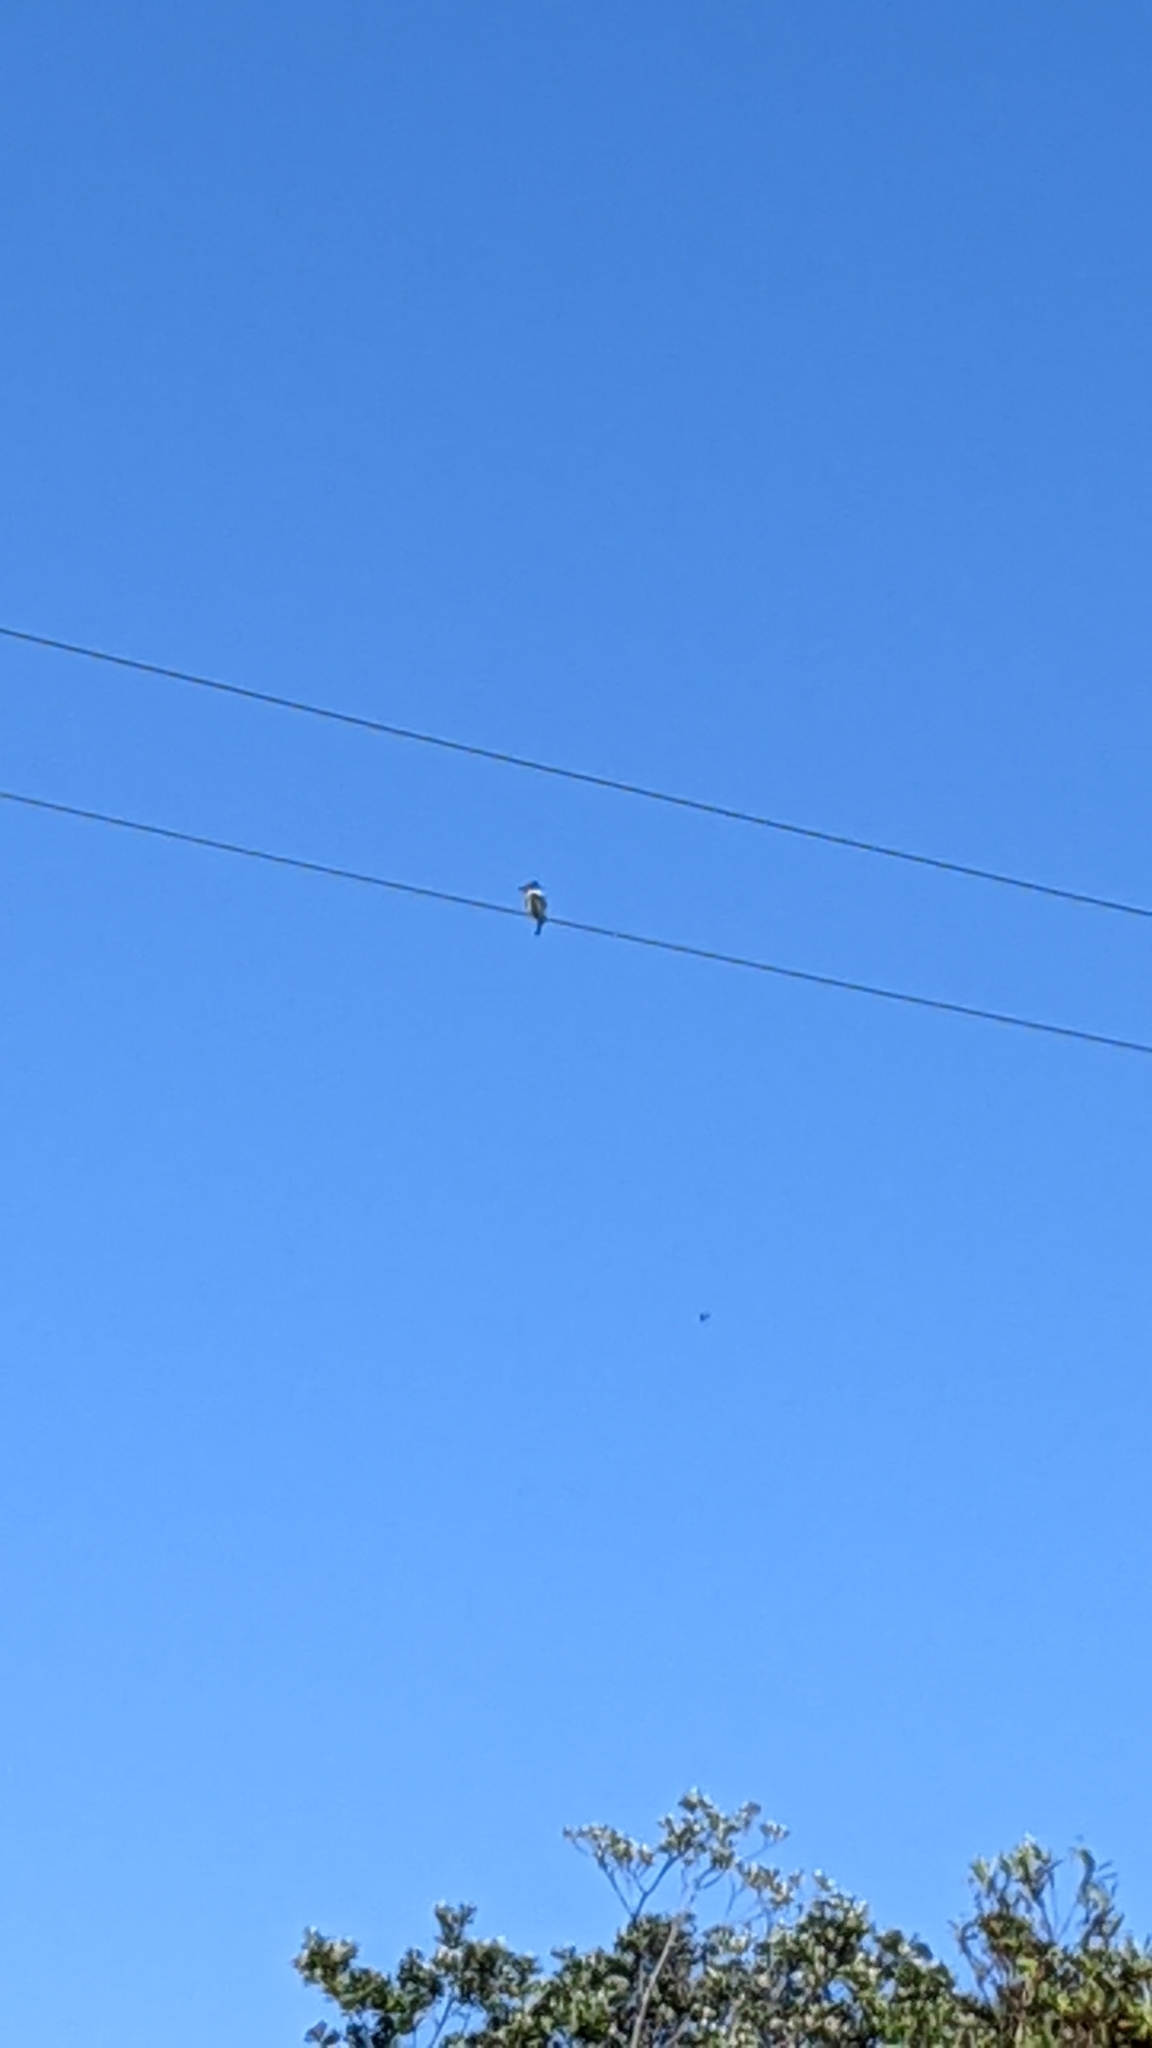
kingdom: Animalia
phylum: Chordata
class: Aves
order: Coraciiformes
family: Alcedinidae
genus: Todiramphus
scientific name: Todiramphus sanctus
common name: Sacred kingfisher
